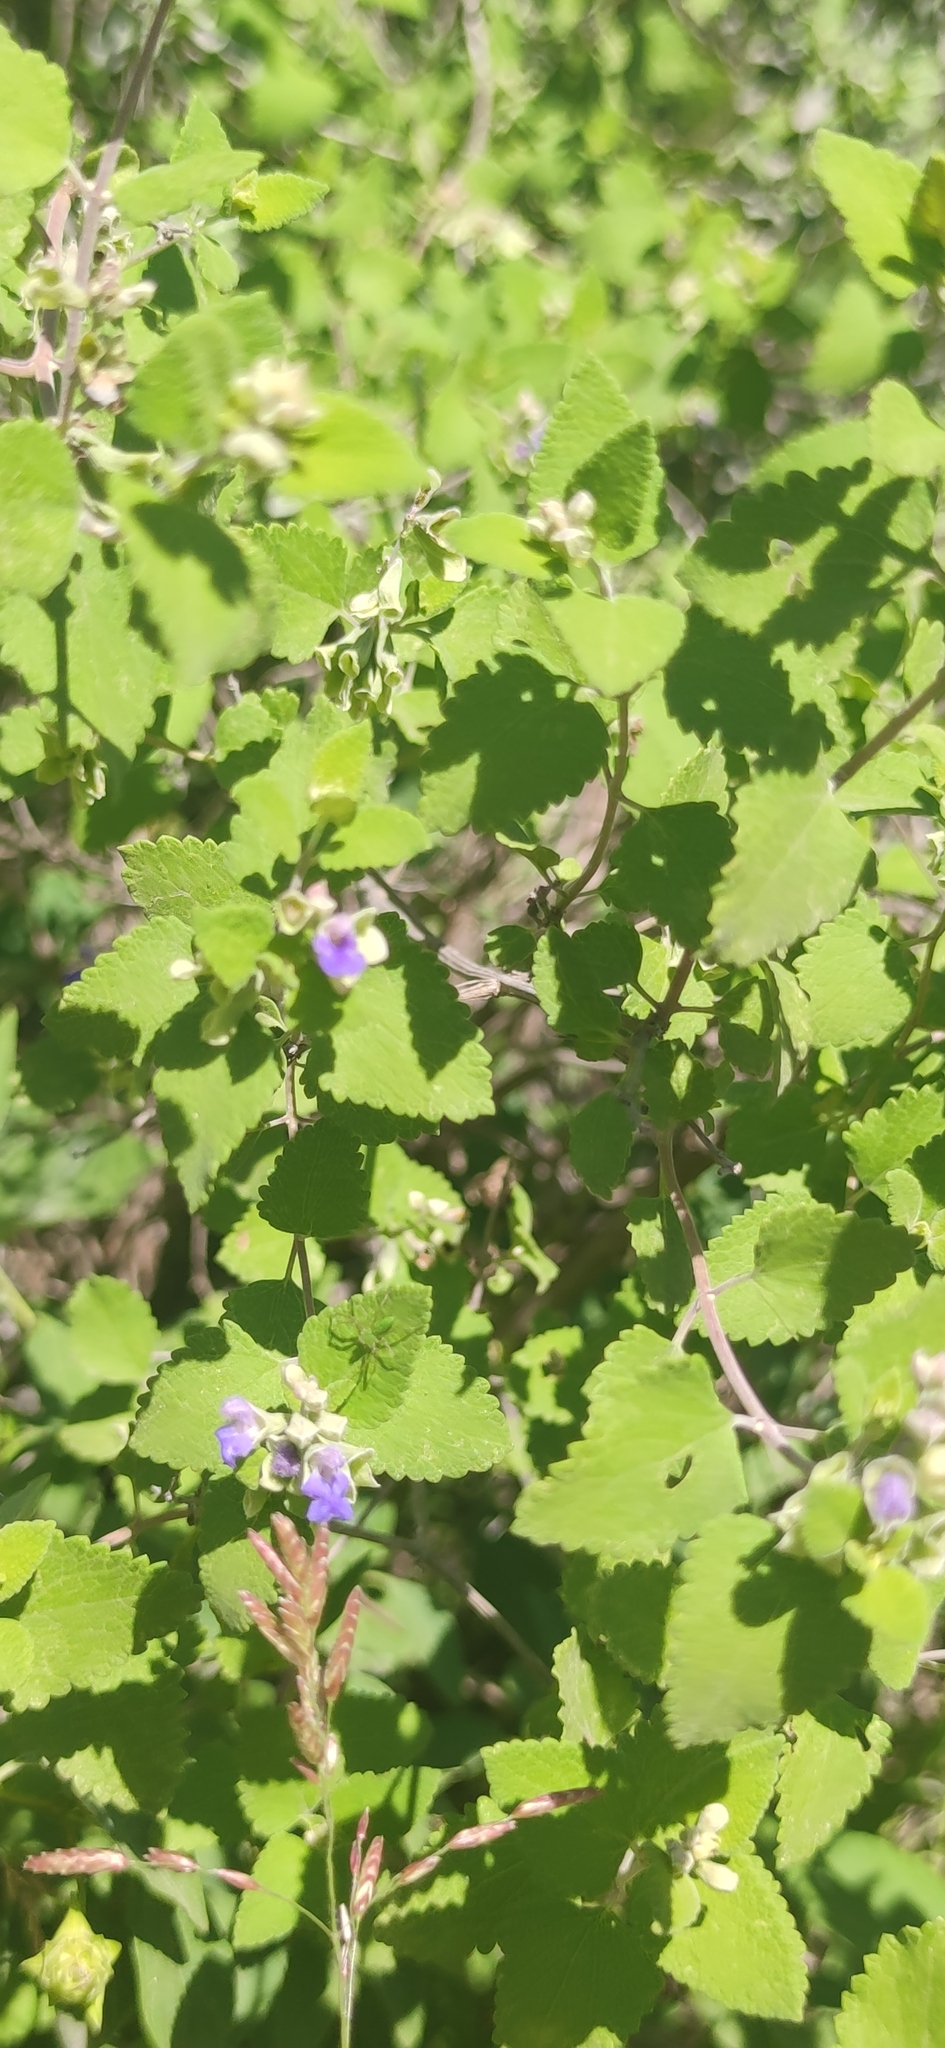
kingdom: Plantae
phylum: Tracheophyta
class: Magnoliopsida
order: Lamiales
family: Lamiaceae
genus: Salvia
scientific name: Salvia ballotiflora
